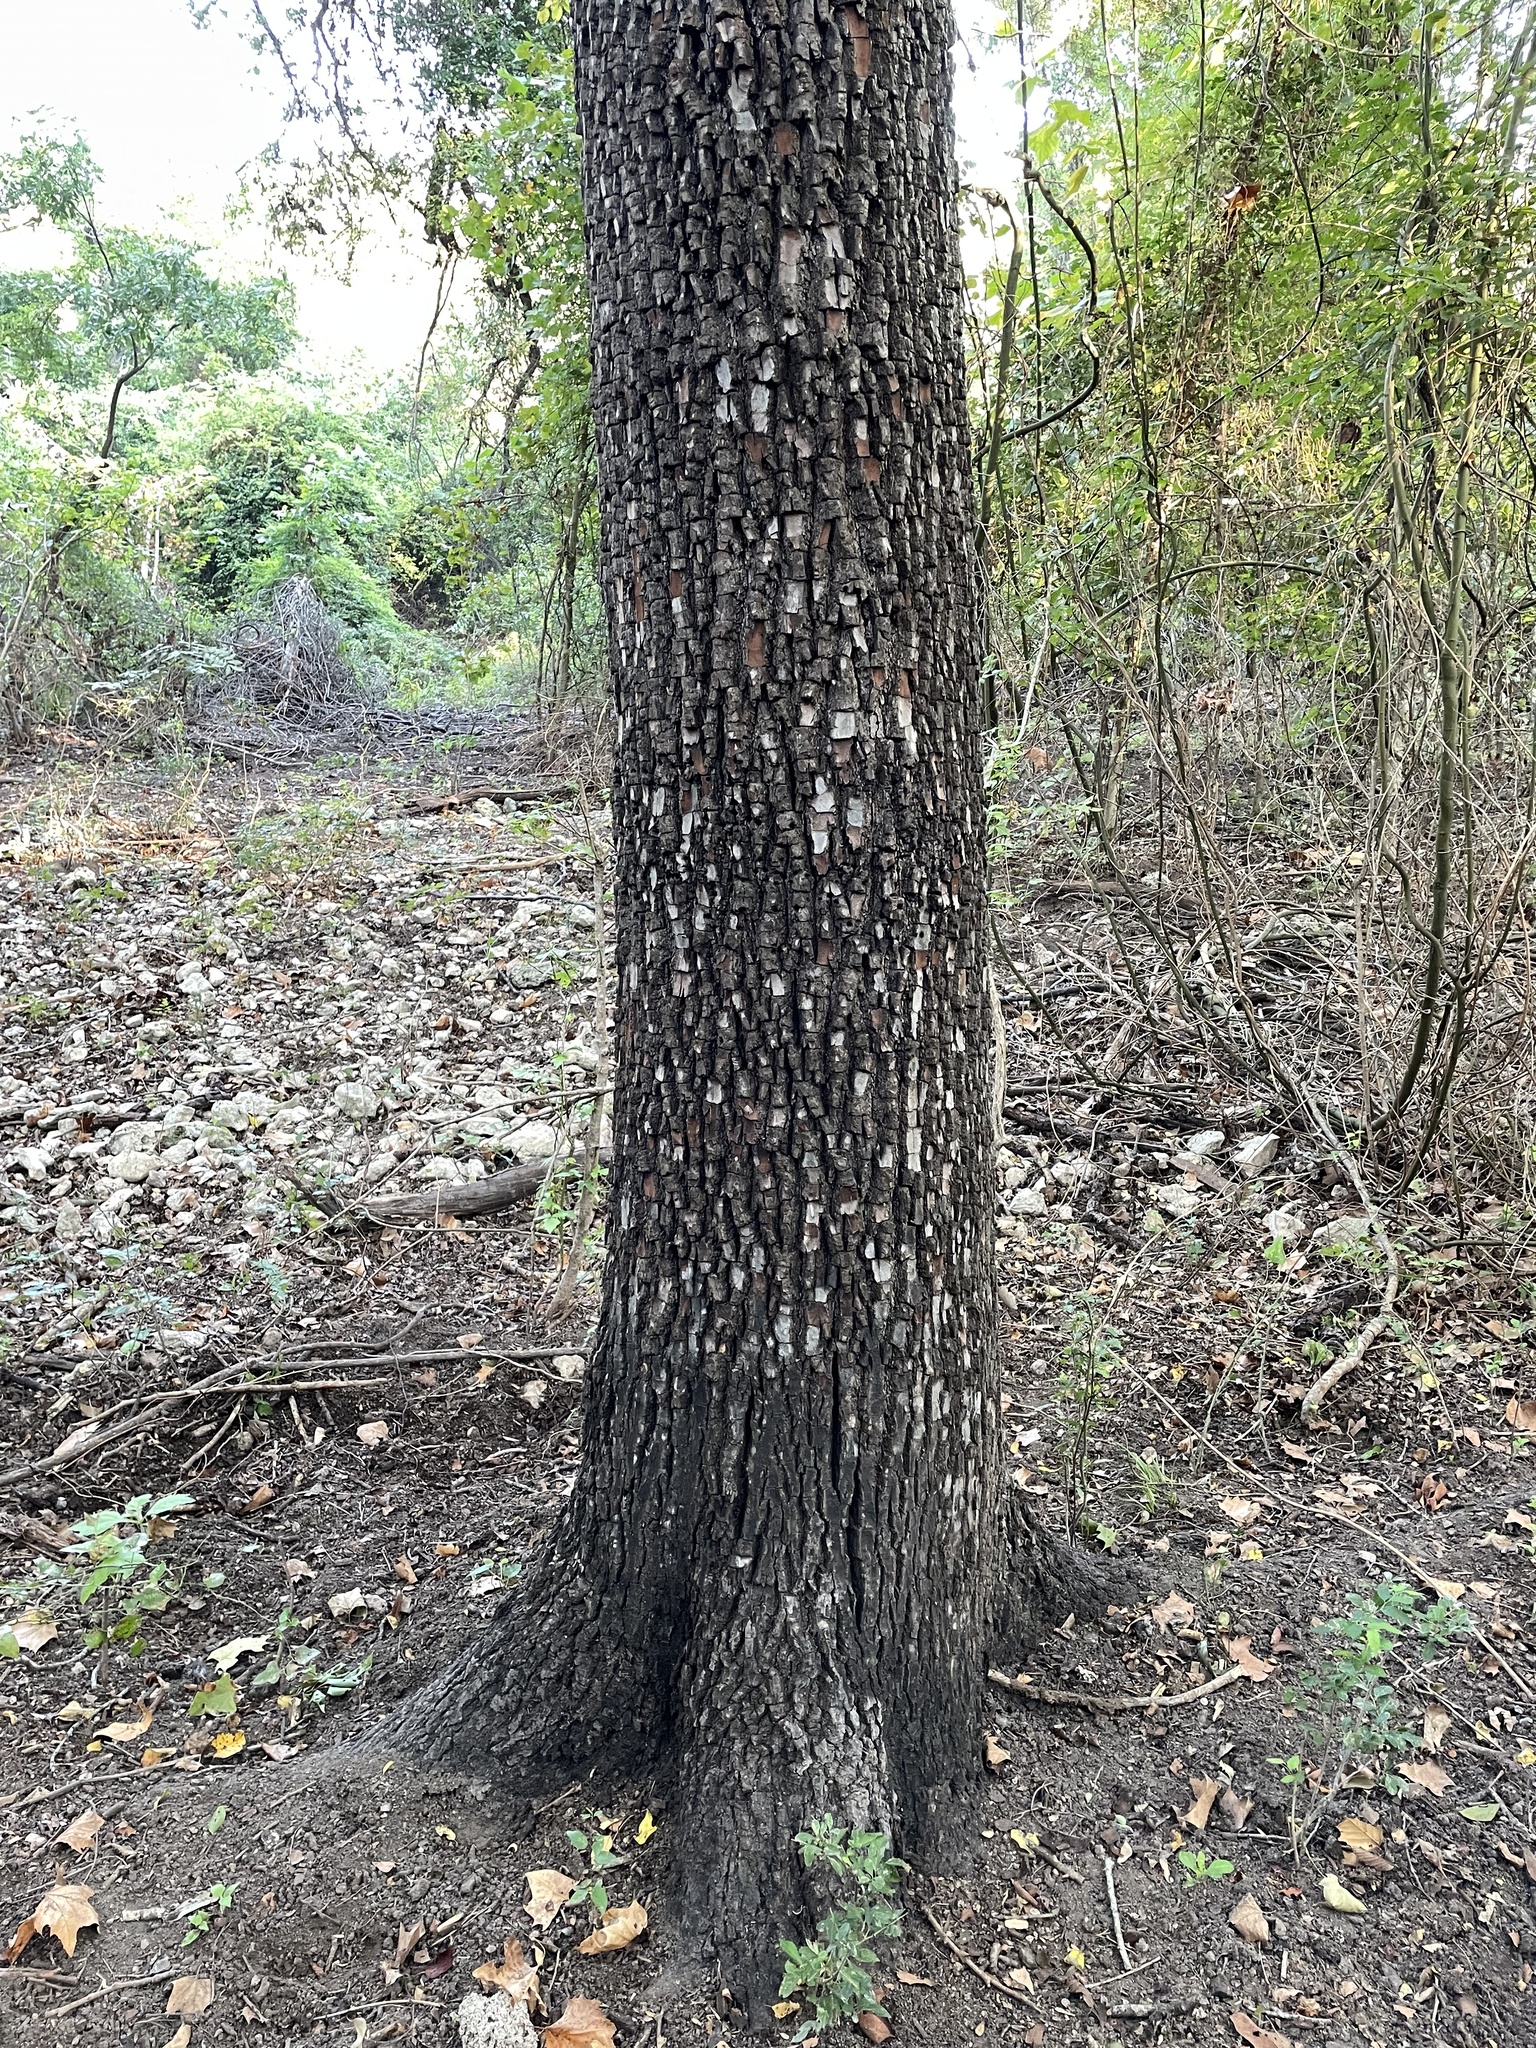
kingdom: Plantae
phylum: Tracheophyta
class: Magnoliopsida
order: Ericales
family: Ebenaceae
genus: Diospyros
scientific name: Diospyros virginiana
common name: Persimmon
